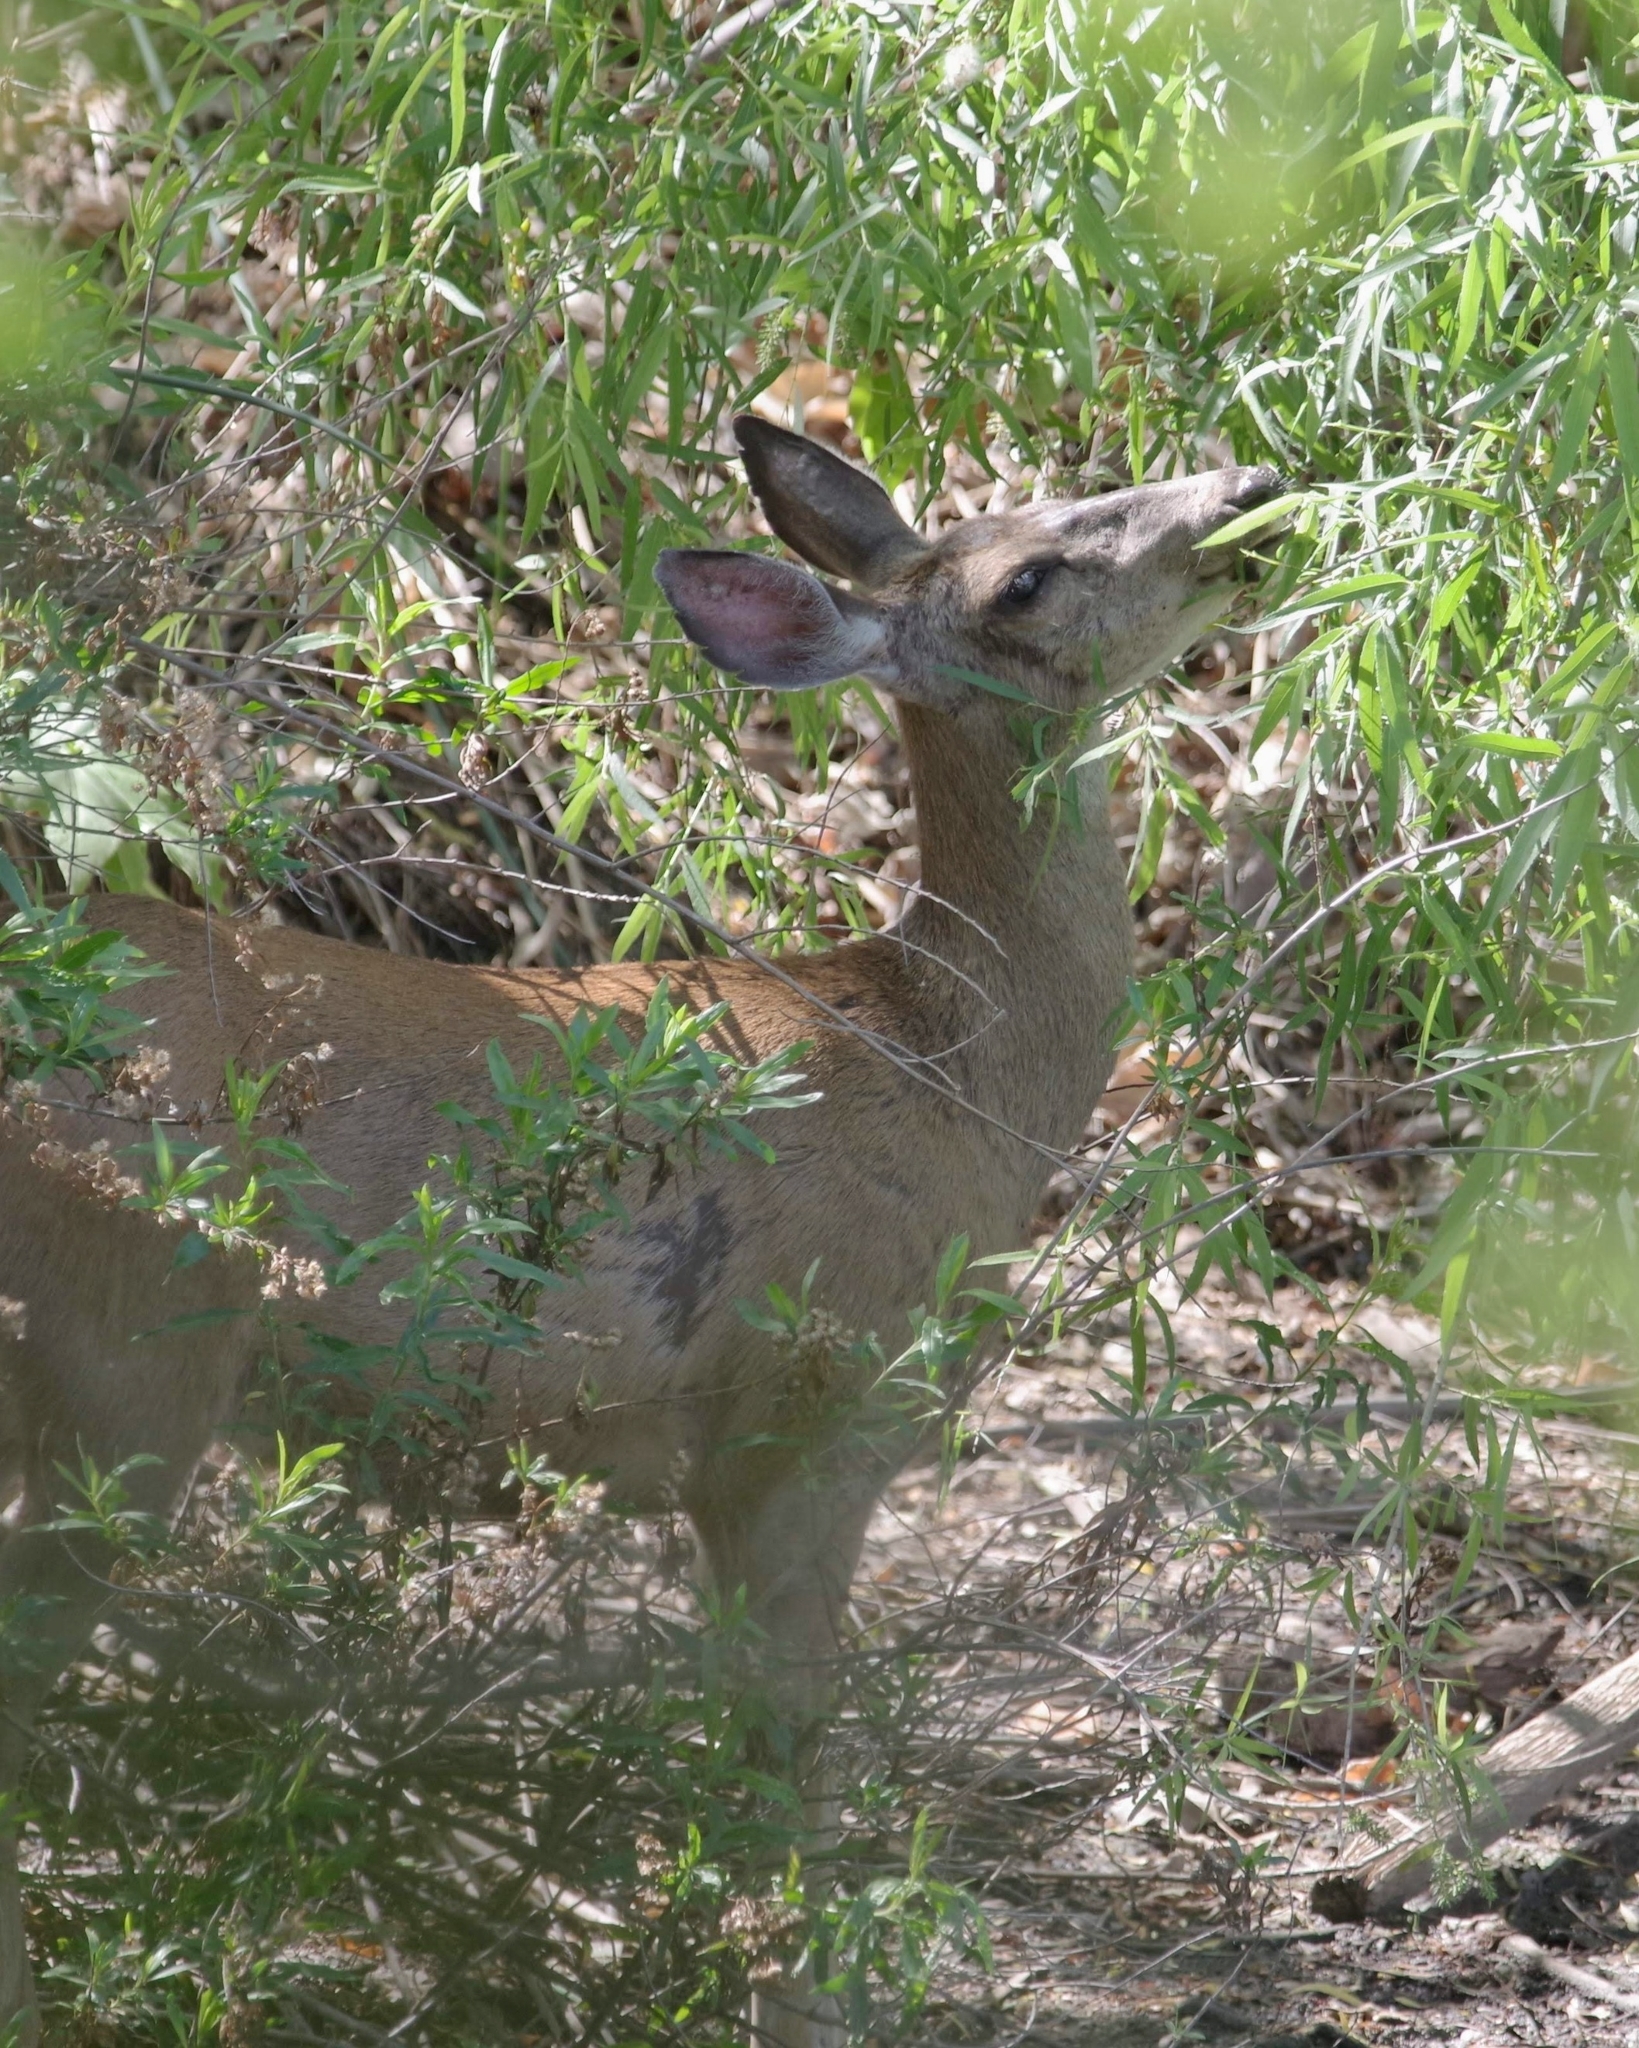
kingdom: Animalia
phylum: Chordata
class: Mammalia
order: Artiodactyla
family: Cervidae
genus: Odocoileus
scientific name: Odocoileus hemionus
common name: Mule deer
